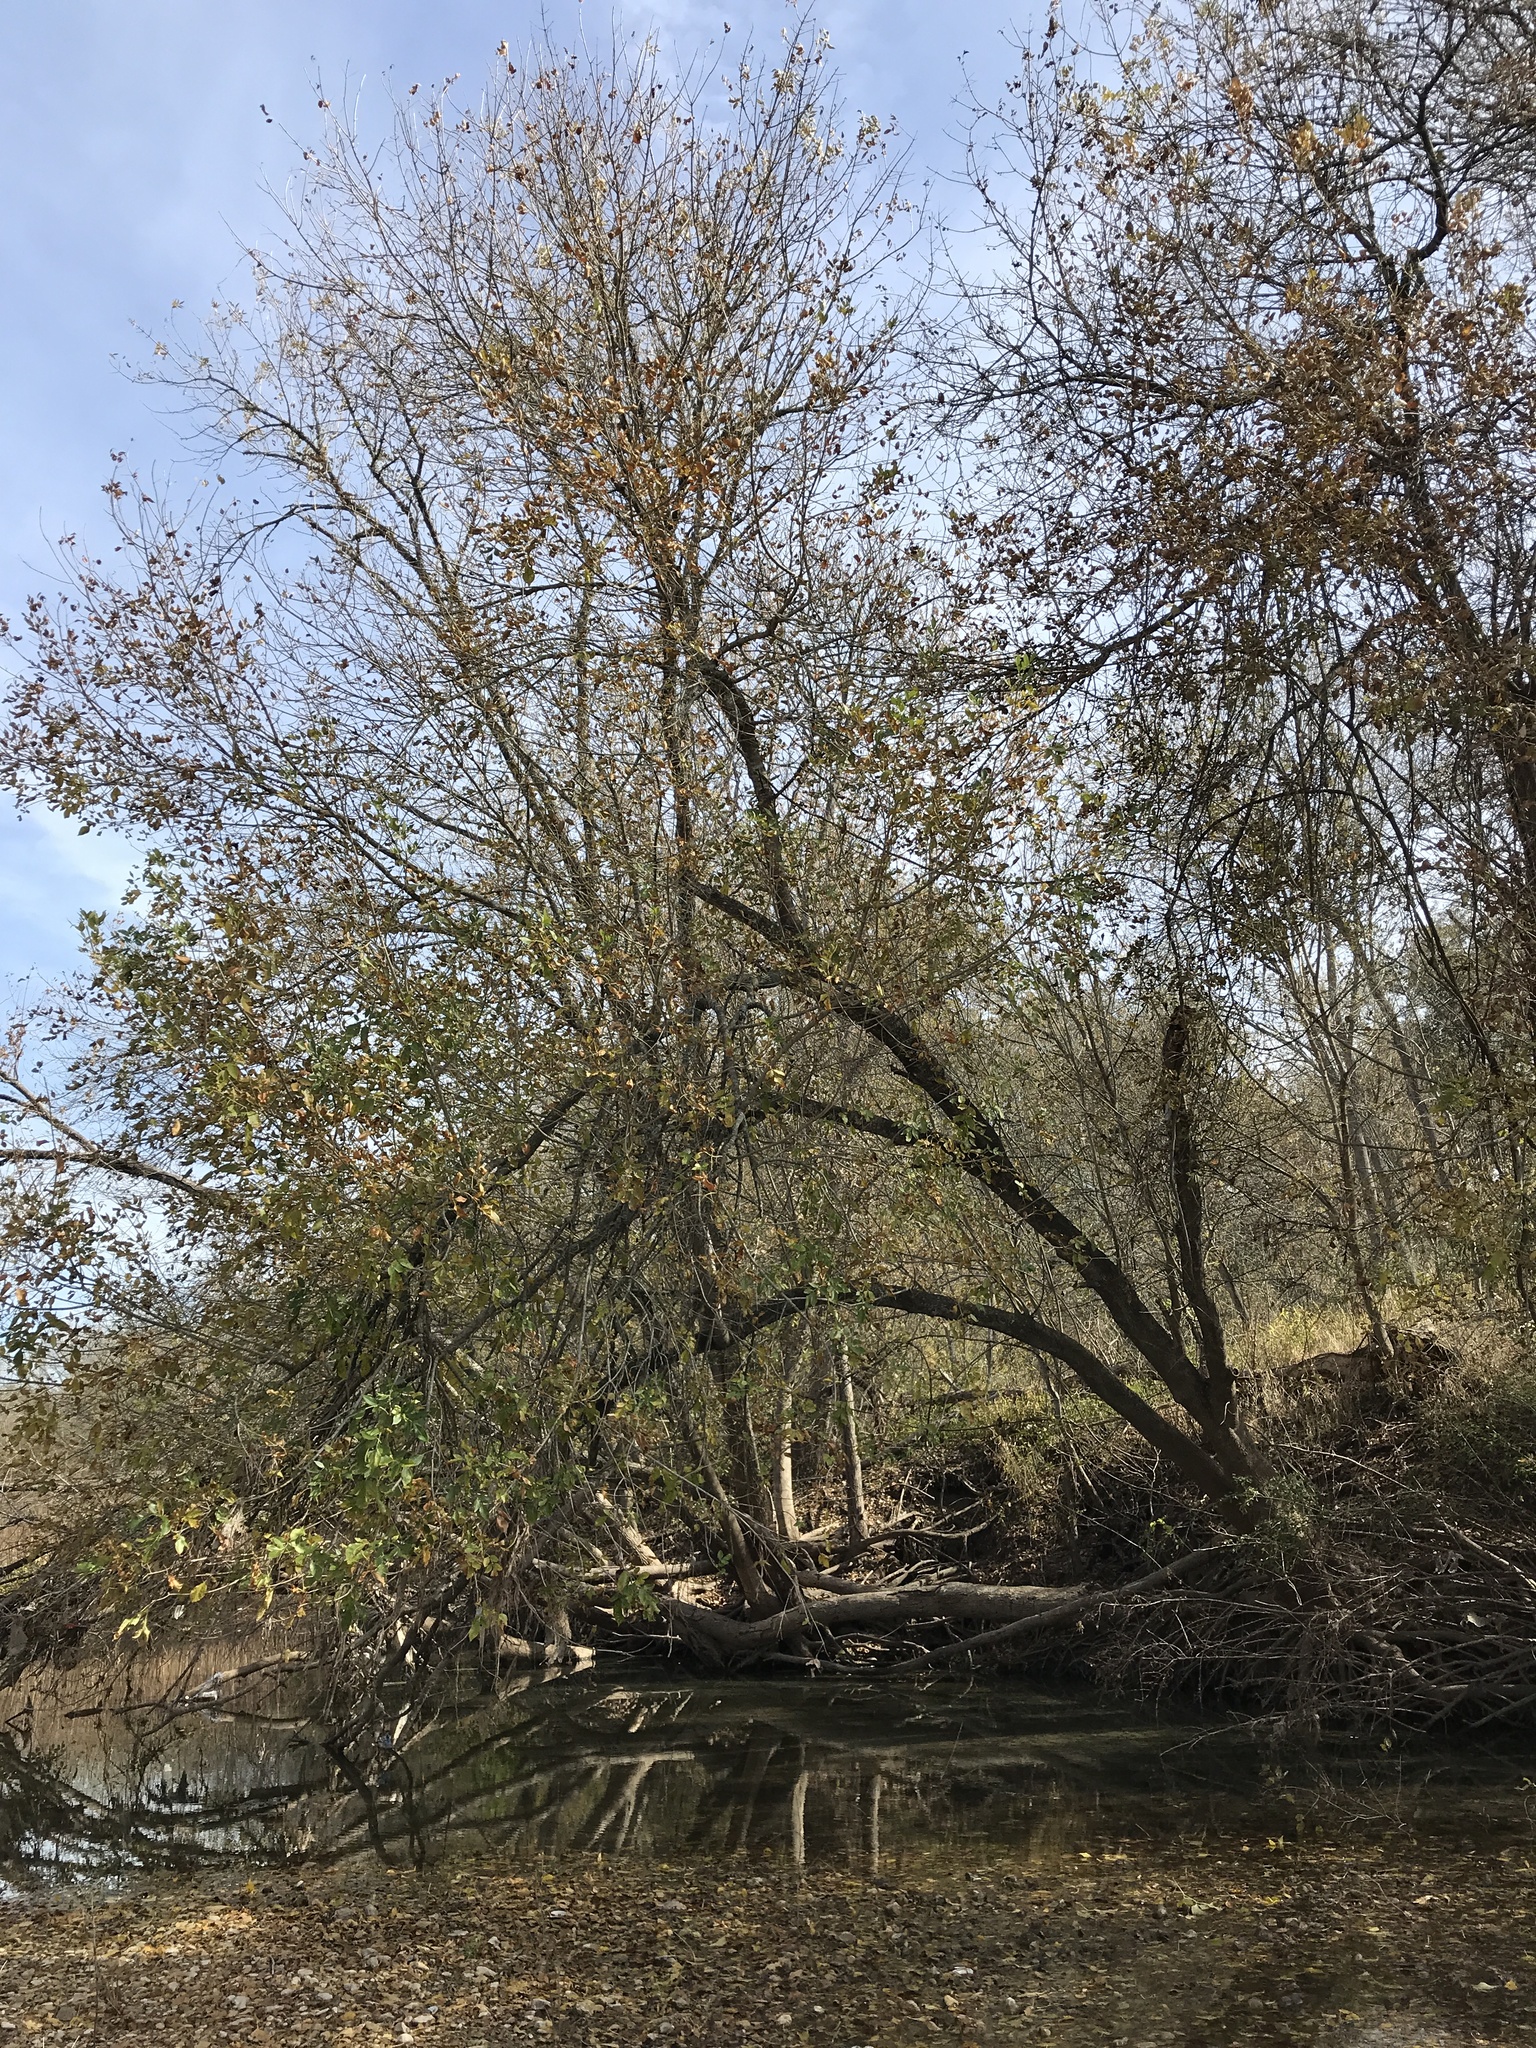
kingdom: Plantae
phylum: Tracheophyta
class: Magnoliopsida
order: Lamiales
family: Oleaceae
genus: Fraxinus
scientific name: Fraxinus pennsylvanica
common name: Green ash
